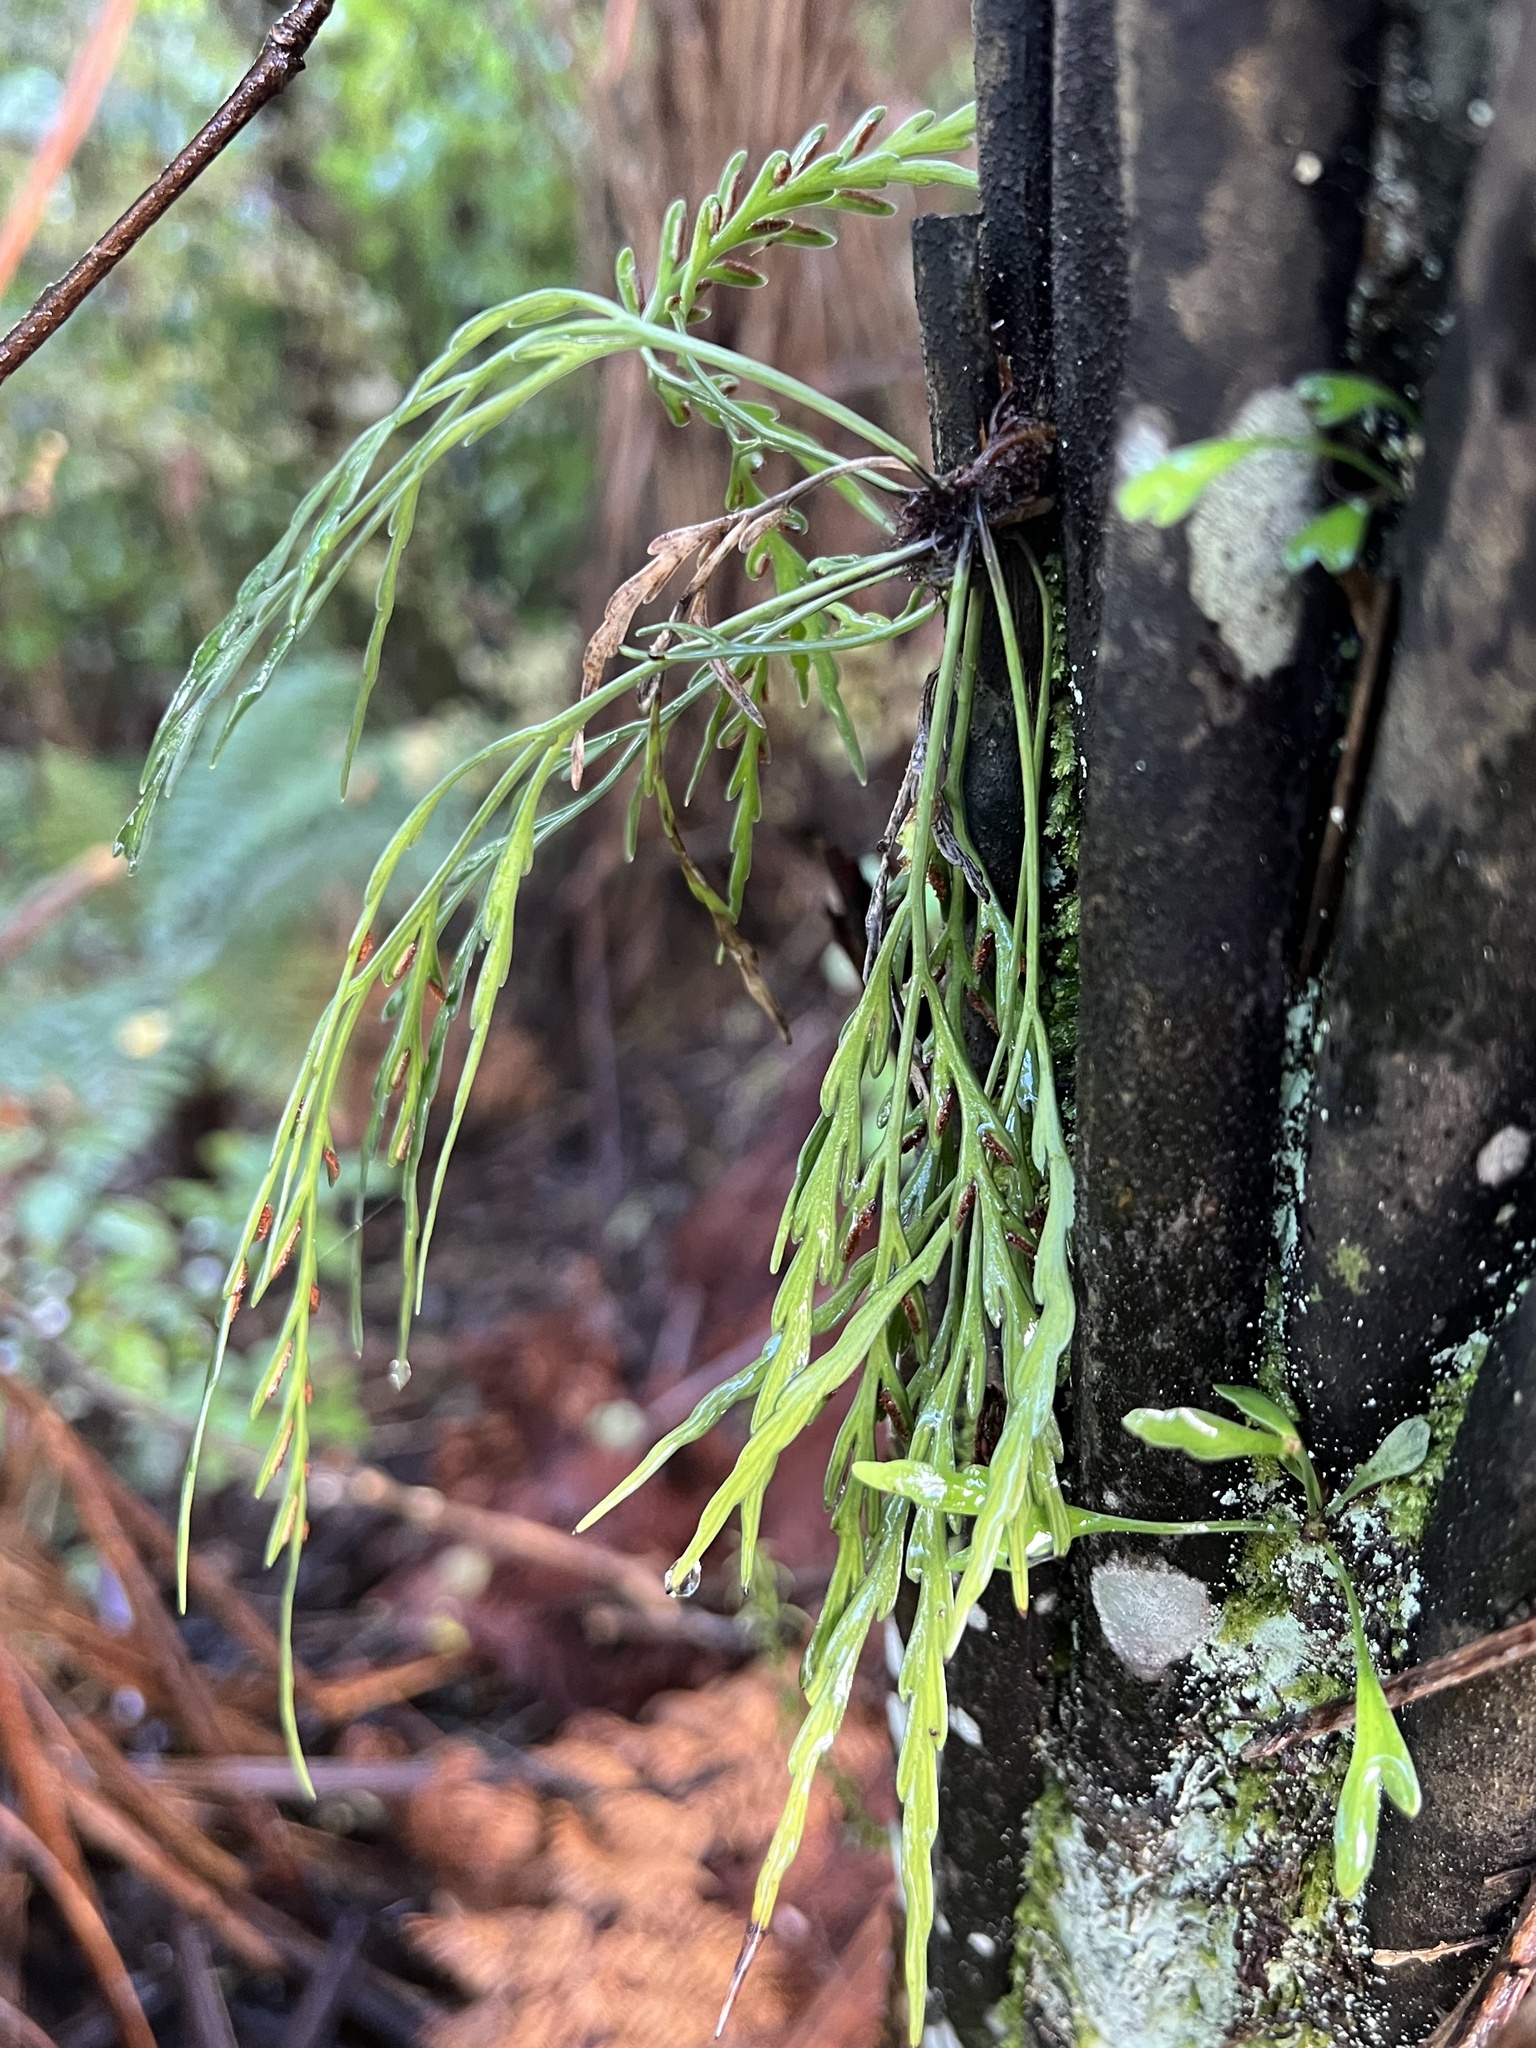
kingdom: Plantae
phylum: Tracheophyta
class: Polypodiopsida
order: Polypodiales
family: Aspleniaceae
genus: Asplenium
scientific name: Asplenium flaccidum
